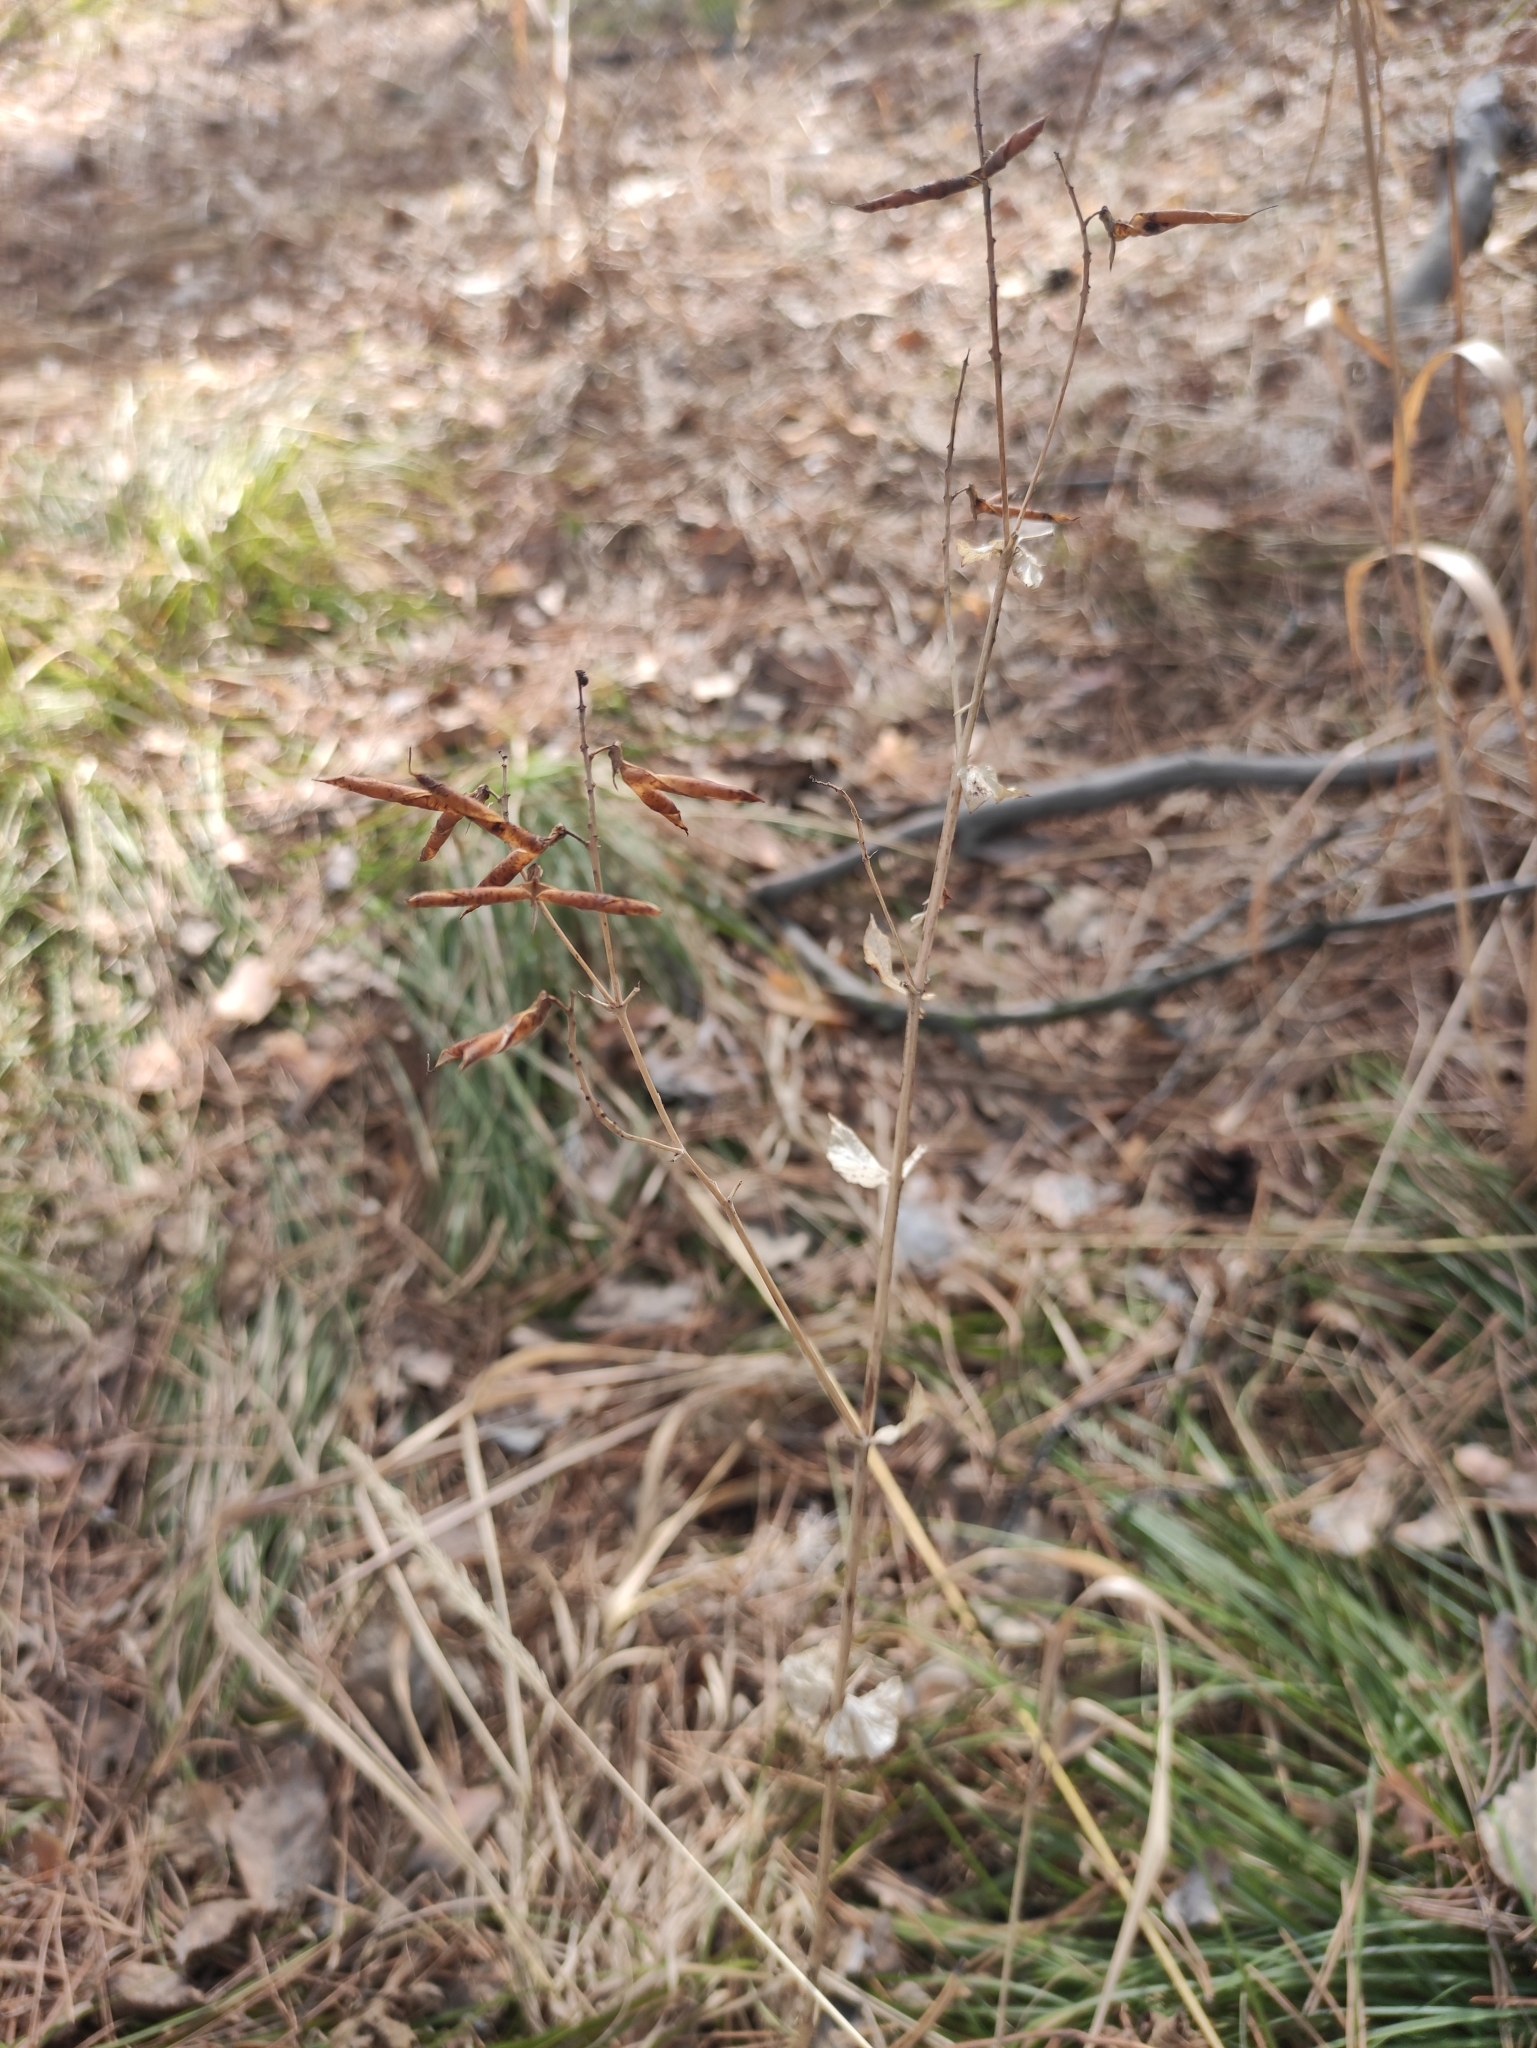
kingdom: Plantae
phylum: Tracheophyta
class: Magnoliopsida
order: Fabales
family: Fabaceae
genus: Vicia
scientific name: Vicia unijuga
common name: Two-leaf vetch
